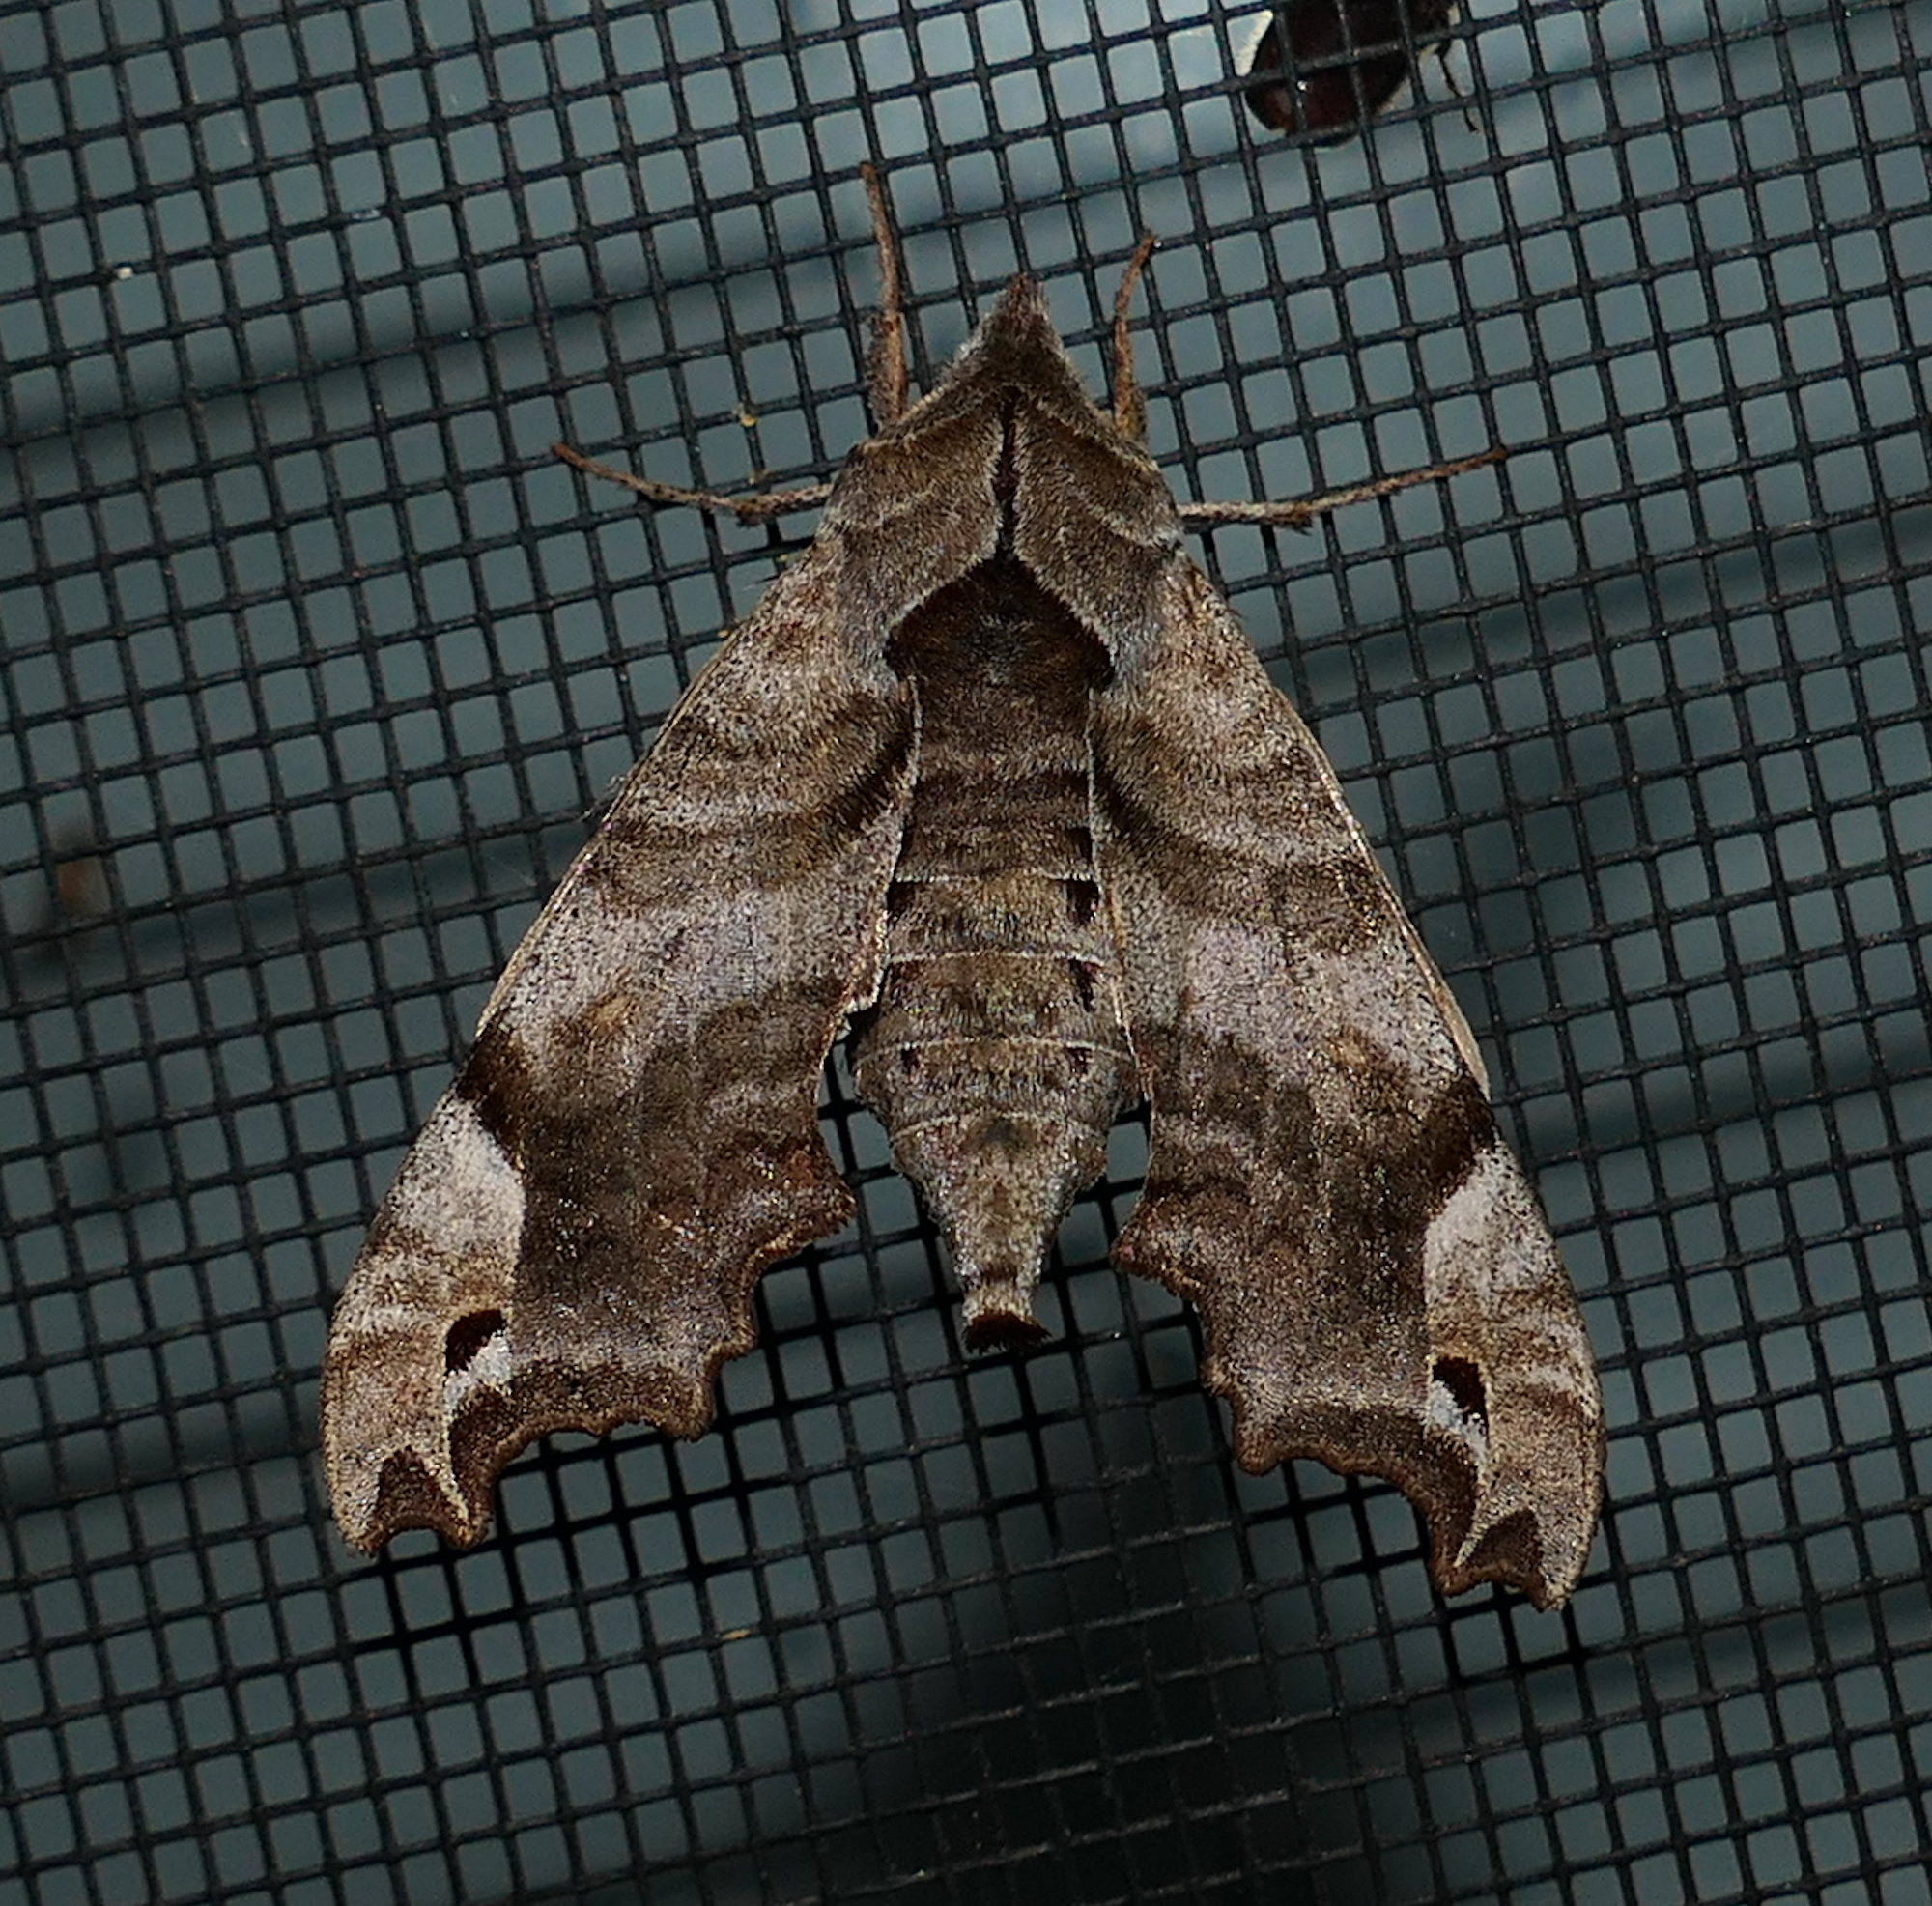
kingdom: Animalia
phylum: Arthropoda
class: Insecta
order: Lepidoptera
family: Sphingidae
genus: Deidamia
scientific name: Deidamia inscriptum
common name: Lettered sphinx
